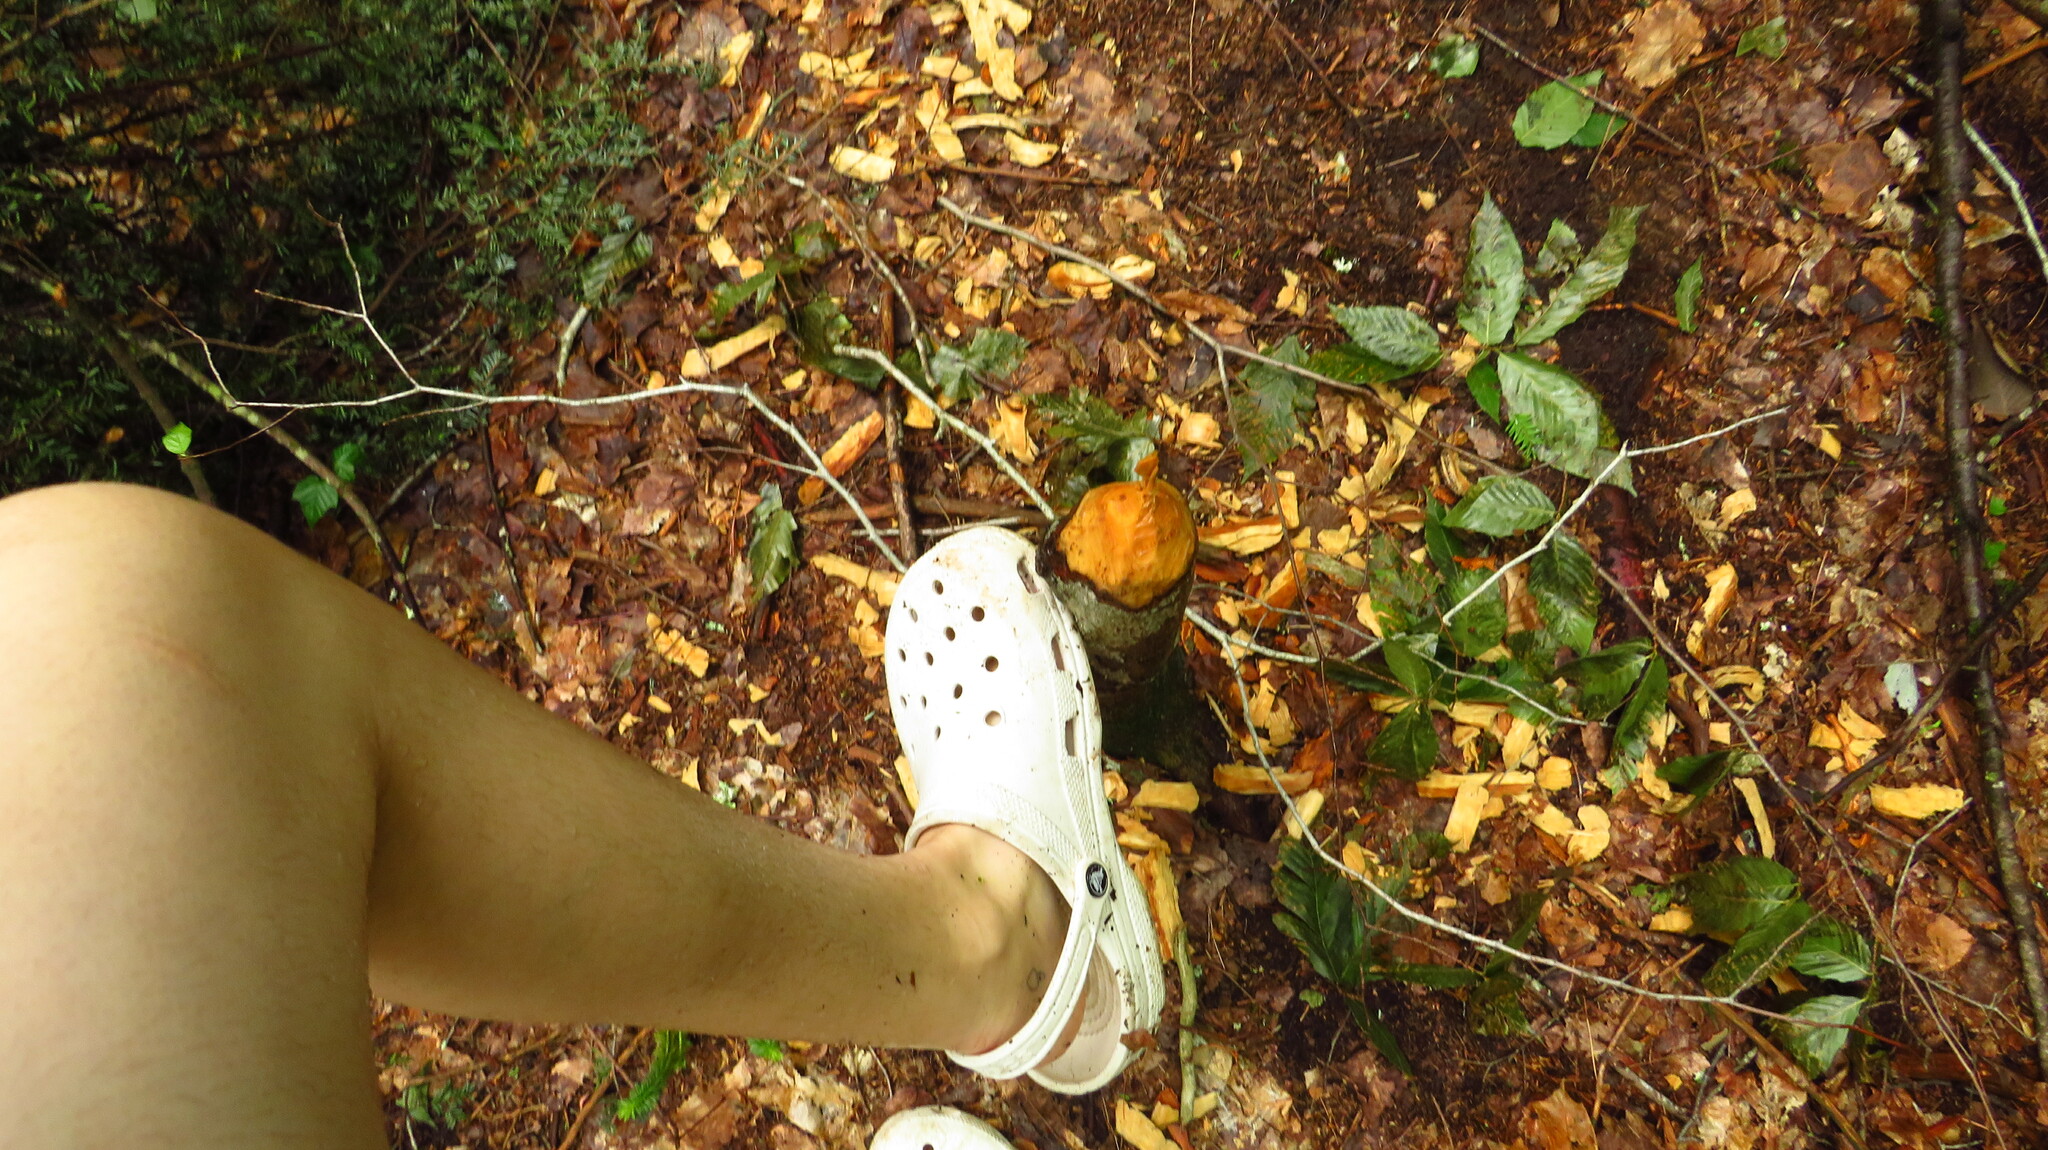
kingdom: Animalia
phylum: Chordata
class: Mammalia
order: Rodentia
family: Castoridae
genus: Castor
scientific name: Castor canadensis
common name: American beaver
